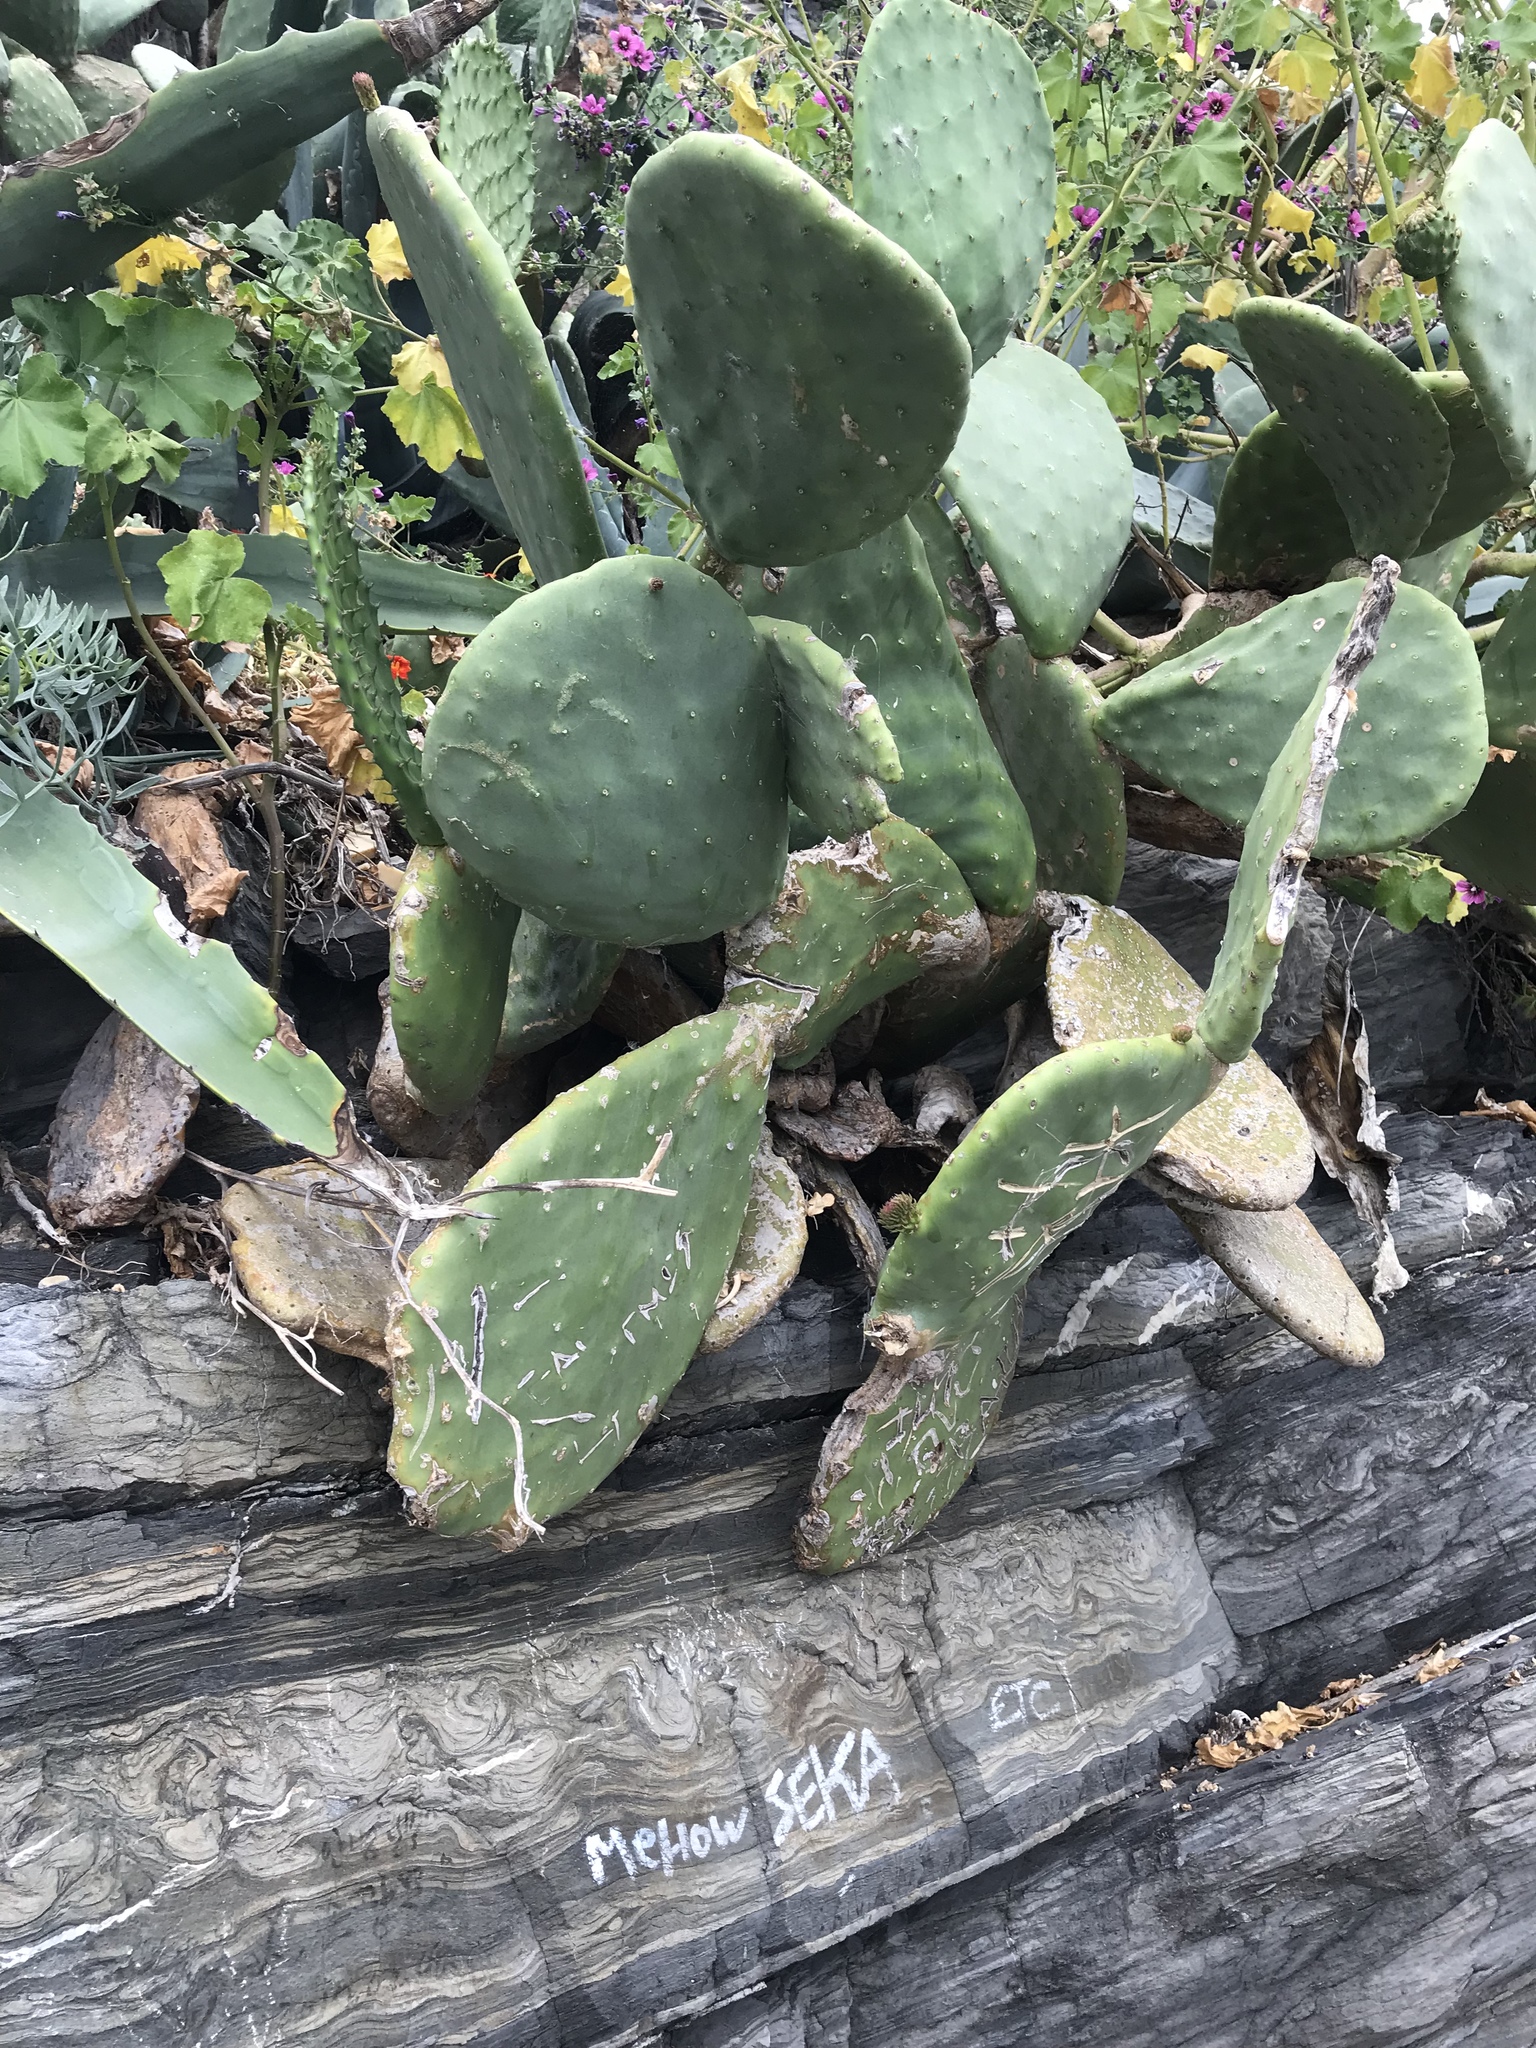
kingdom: Plantae
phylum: Tracheophyta
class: Magnoliopsida
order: Caryophyllales
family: Cactaceae
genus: Opuntia
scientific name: Opuntia ficus-indica
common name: Barbary fig
